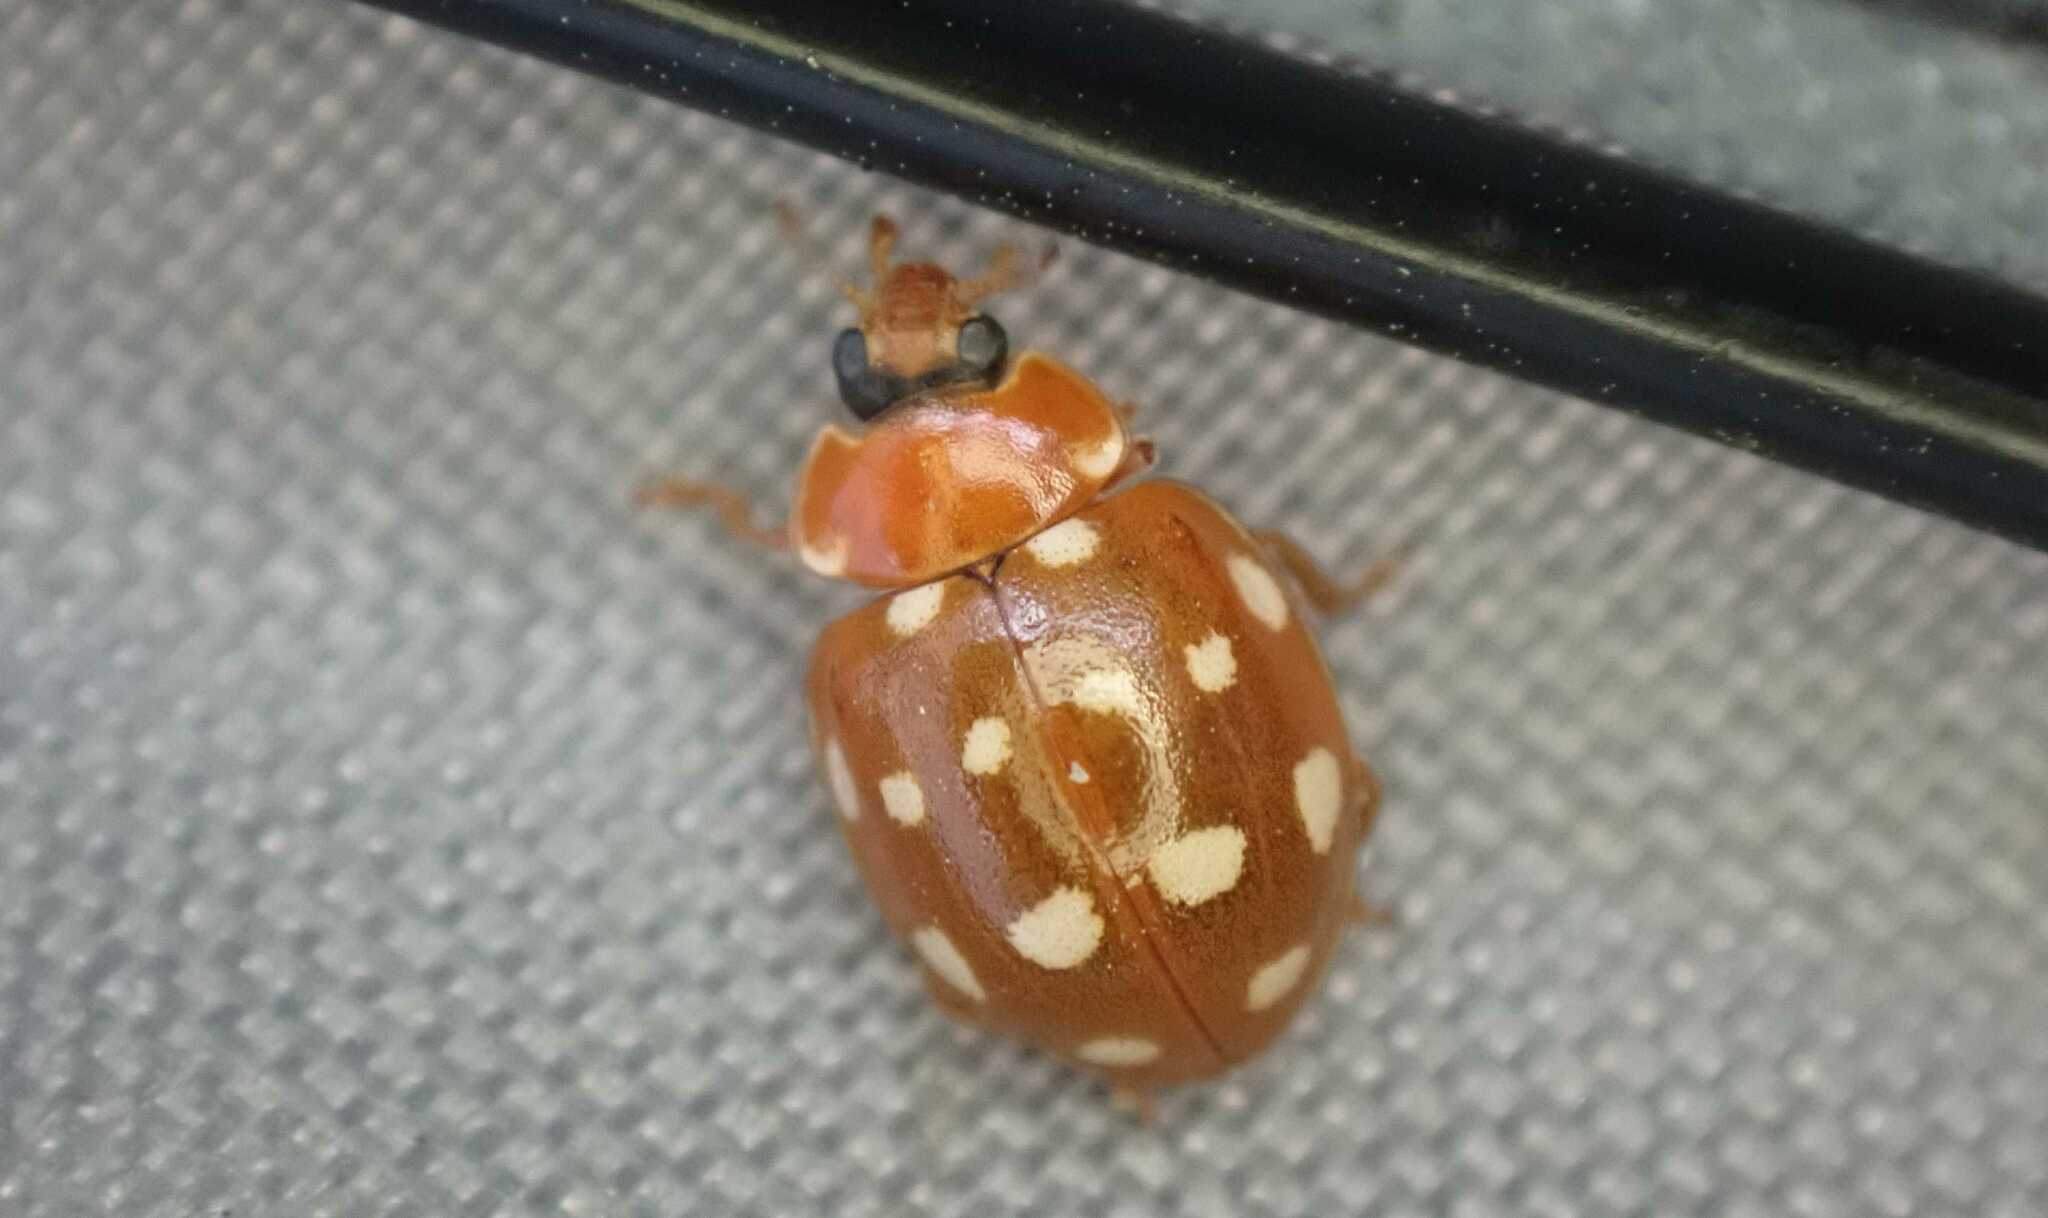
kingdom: Animalia
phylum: Arthropoda
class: Insecta
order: Coleoptera
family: Coccinellidae
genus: Calvia
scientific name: Calvia quatuordecimguttata
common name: Cream-spot ladybird
